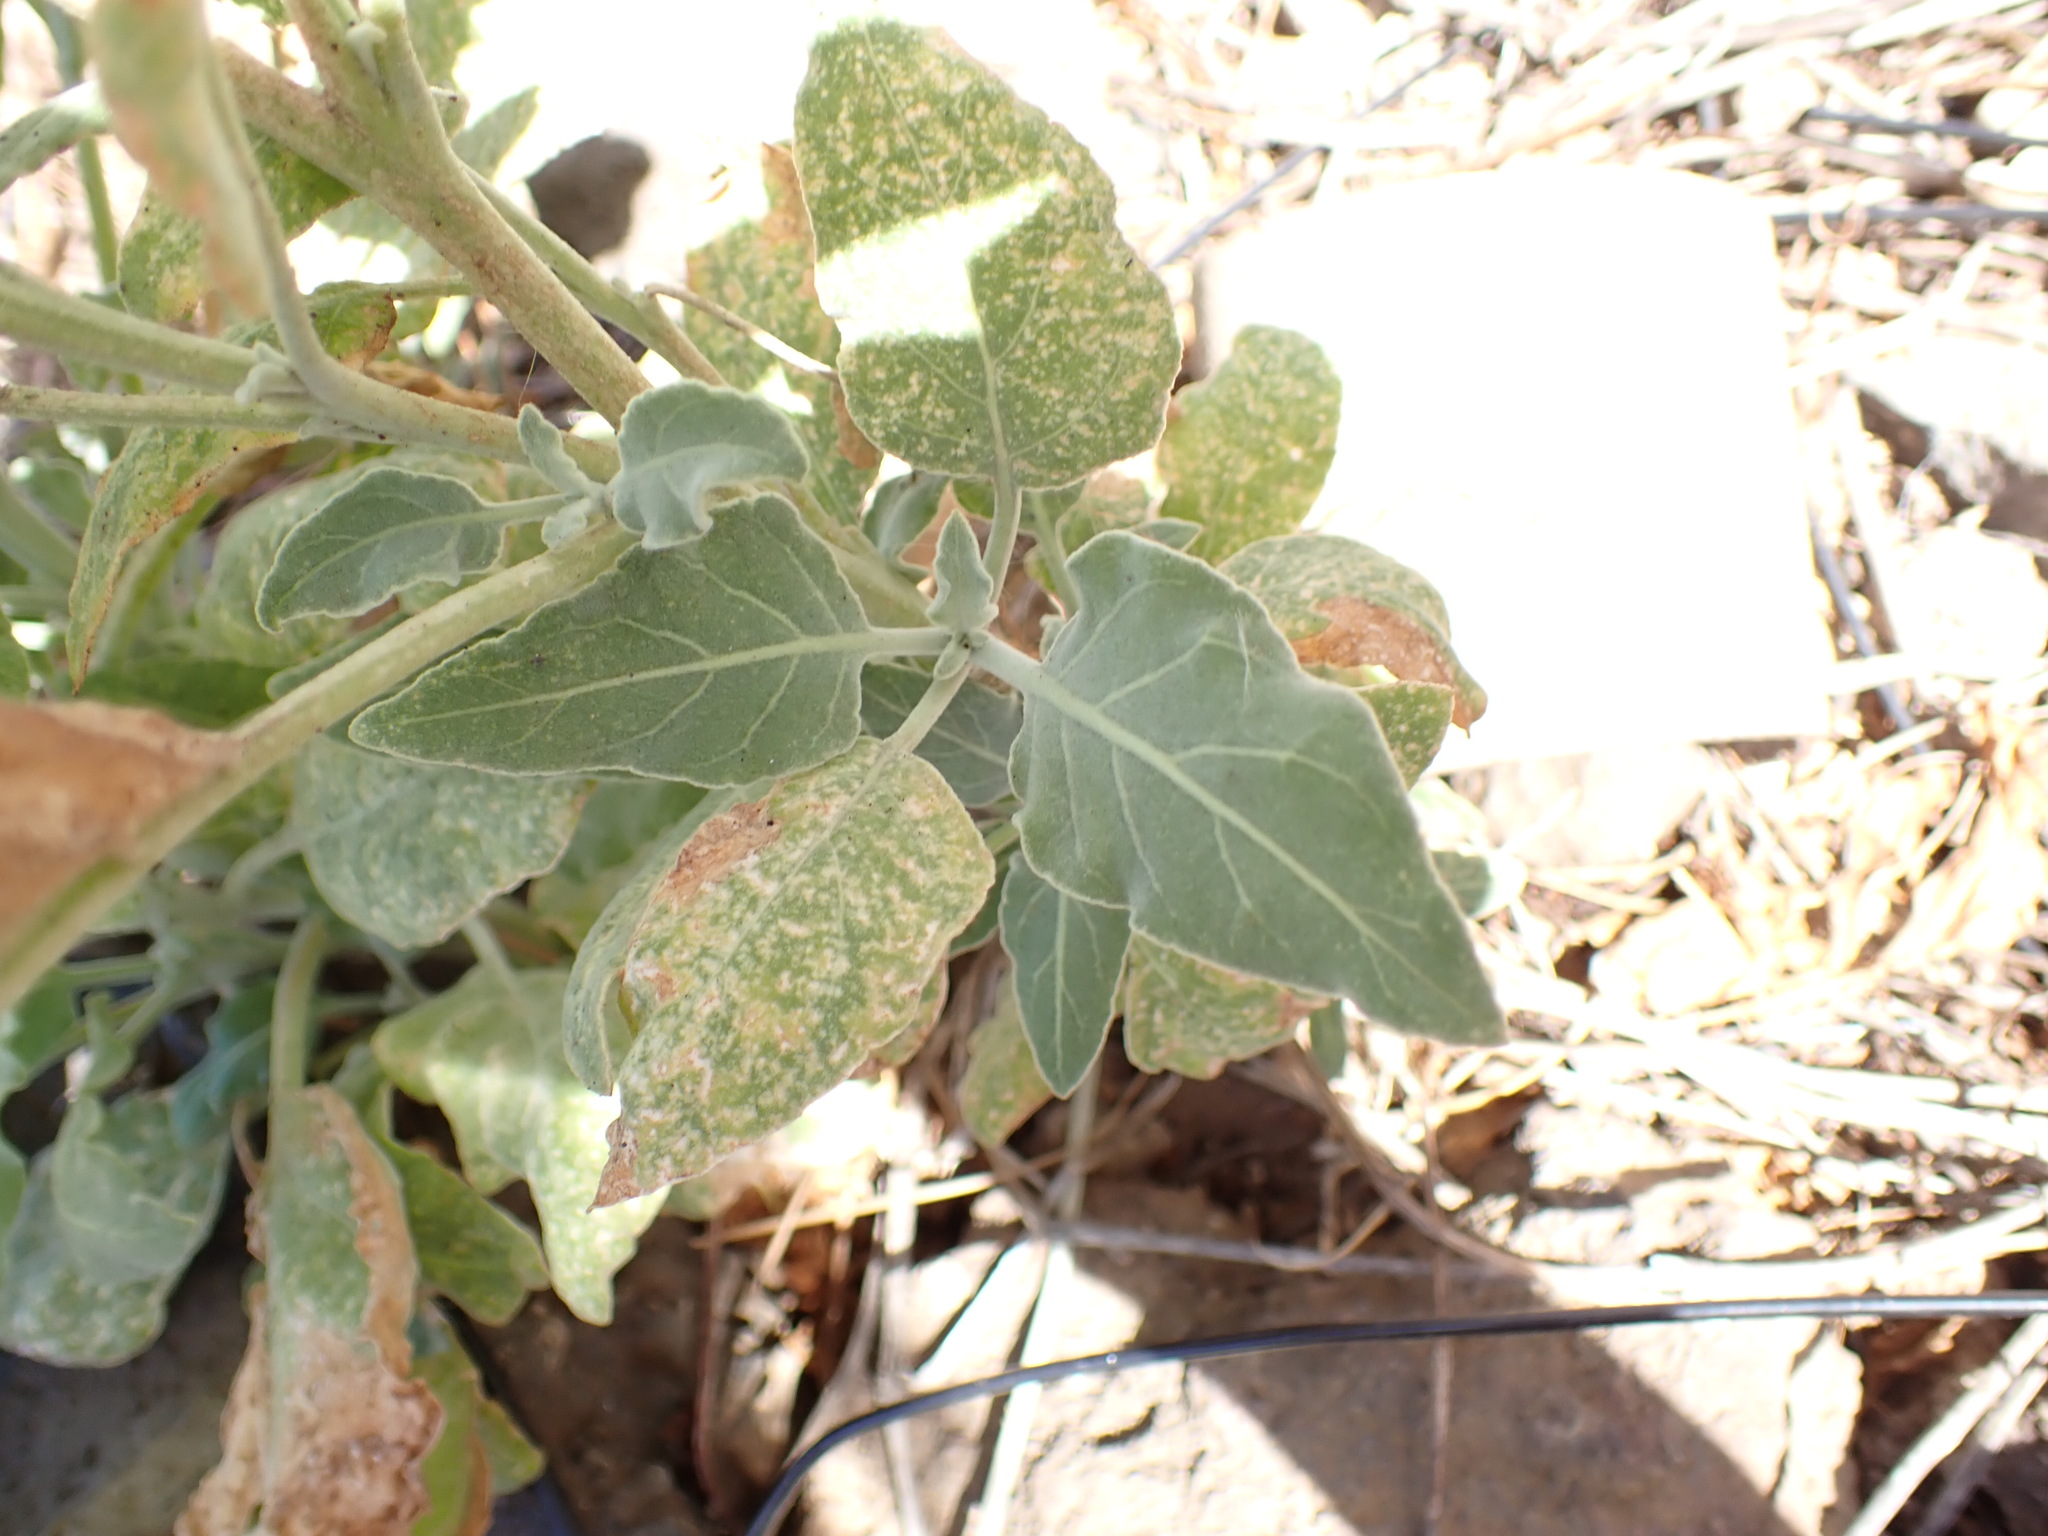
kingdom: Plantae
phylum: Tracheophyta
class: Magnoliopsida
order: Solanales
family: Solanaceae
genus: Nicotiana
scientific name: Nicotiana paniculata
